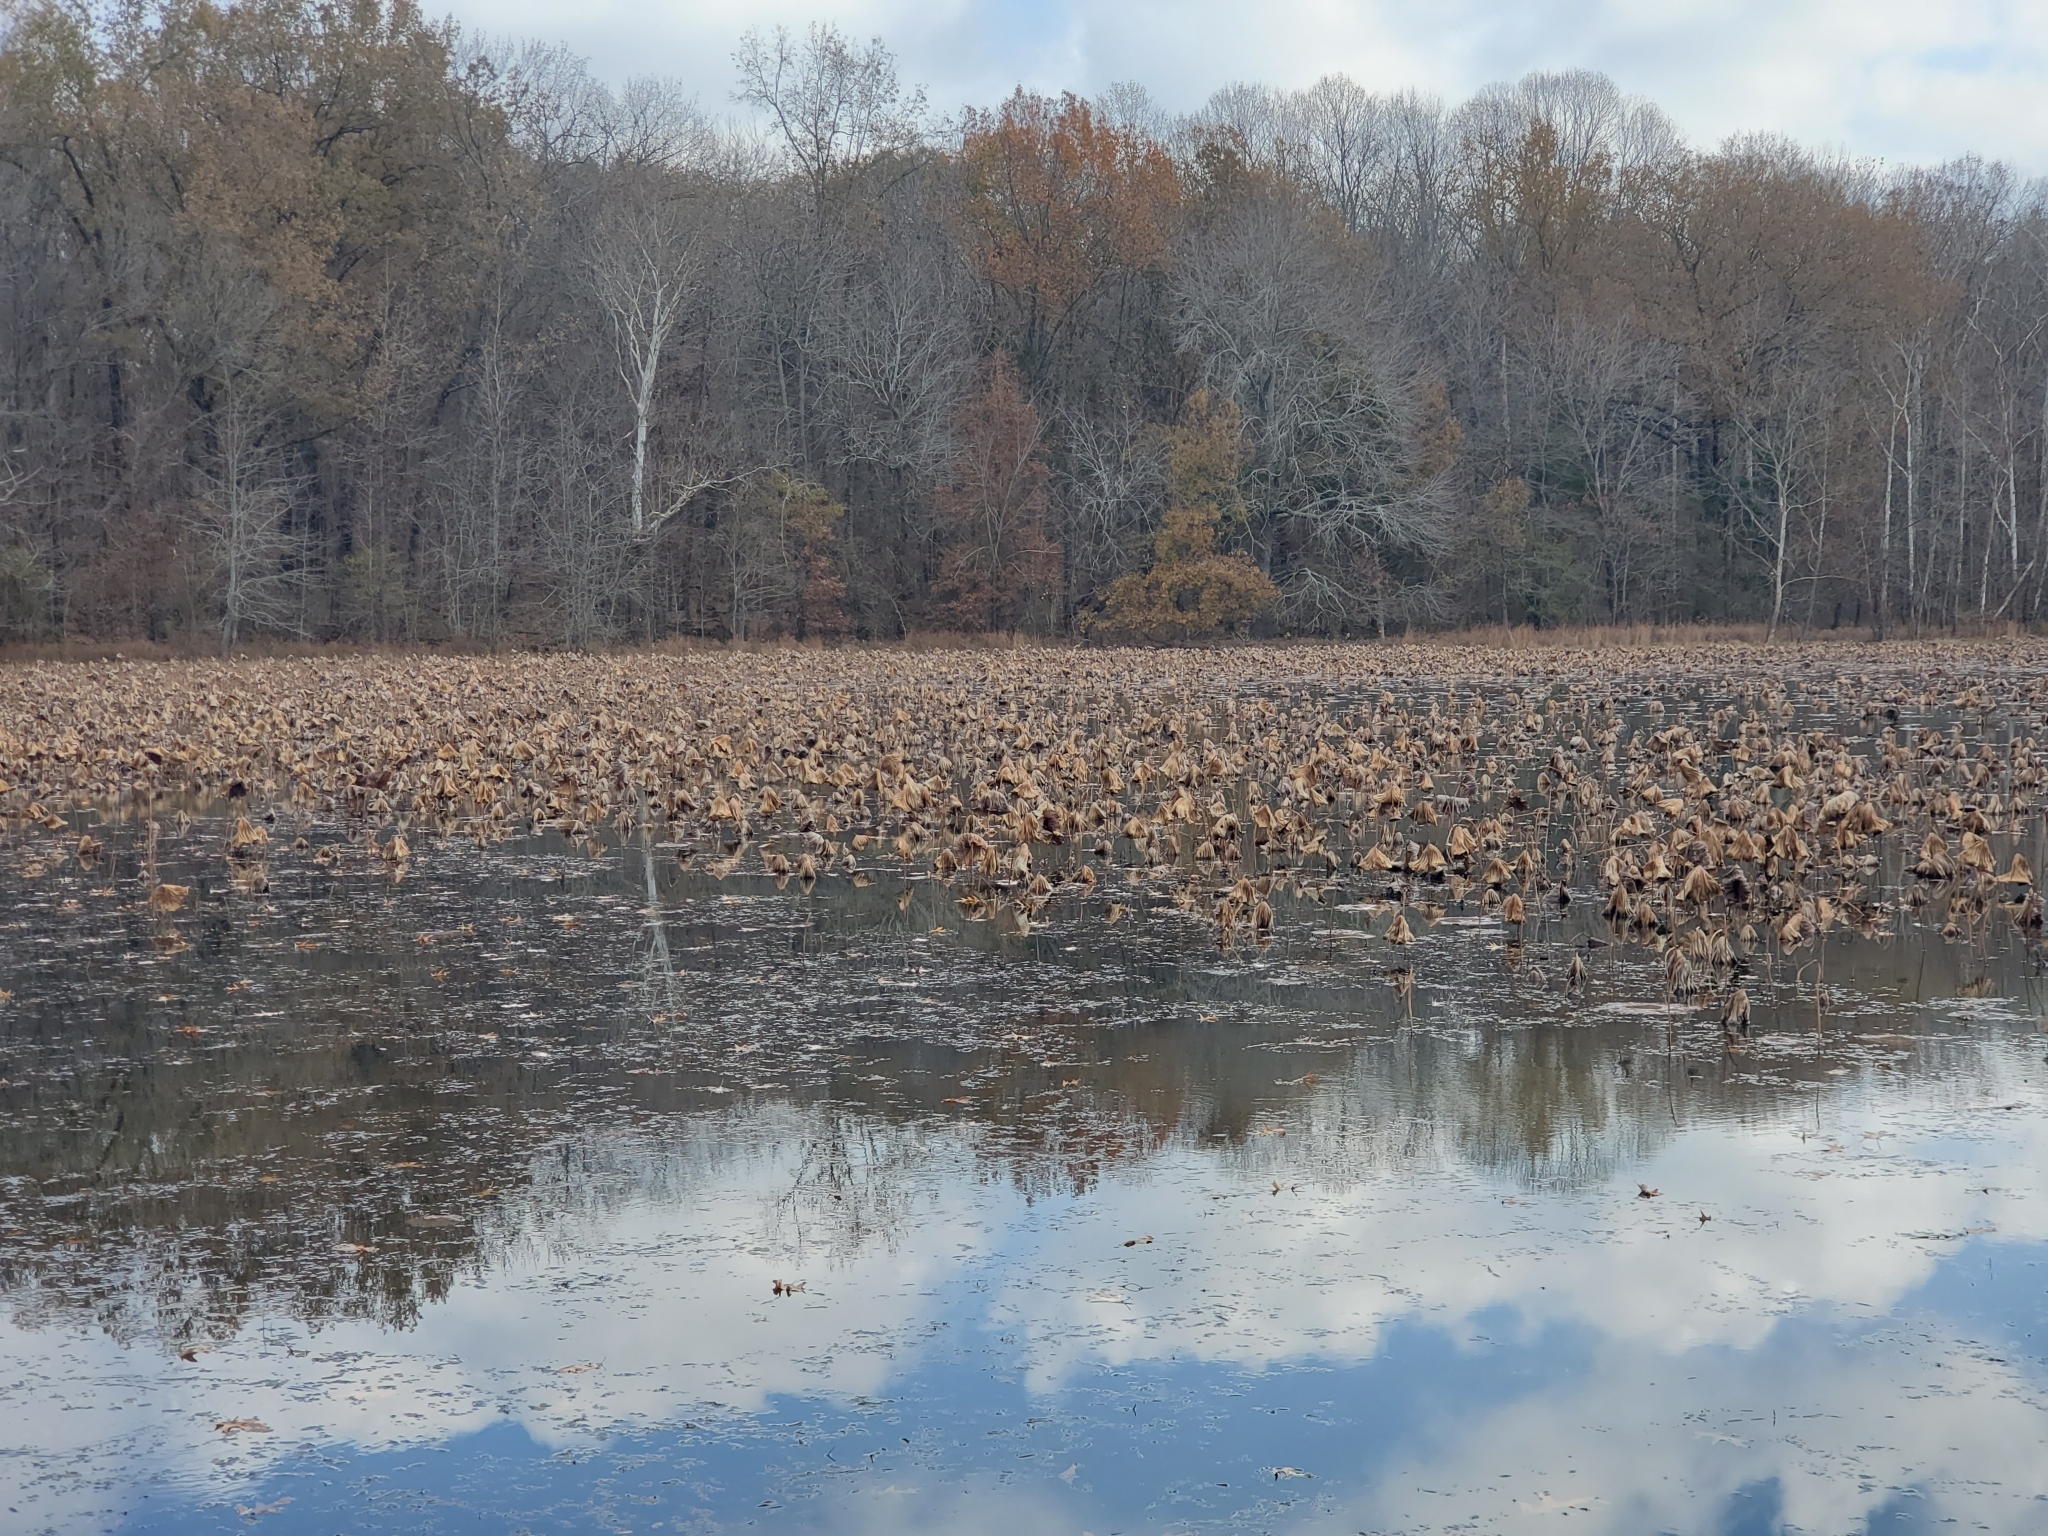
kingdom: Plantae
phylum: Tracheophyta
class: Magnoliopsida
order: Proteales
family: Nelumbonaceae
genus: Nelumbo
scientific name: Nelumbo lutea
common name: American lotus
